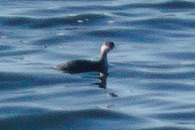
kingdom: Animalia
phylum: Chordata
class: Aves
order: Podicipediformes
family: Podicipedidae
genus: Podiceps
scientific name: Podiceps auritus
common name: Horned grebe
